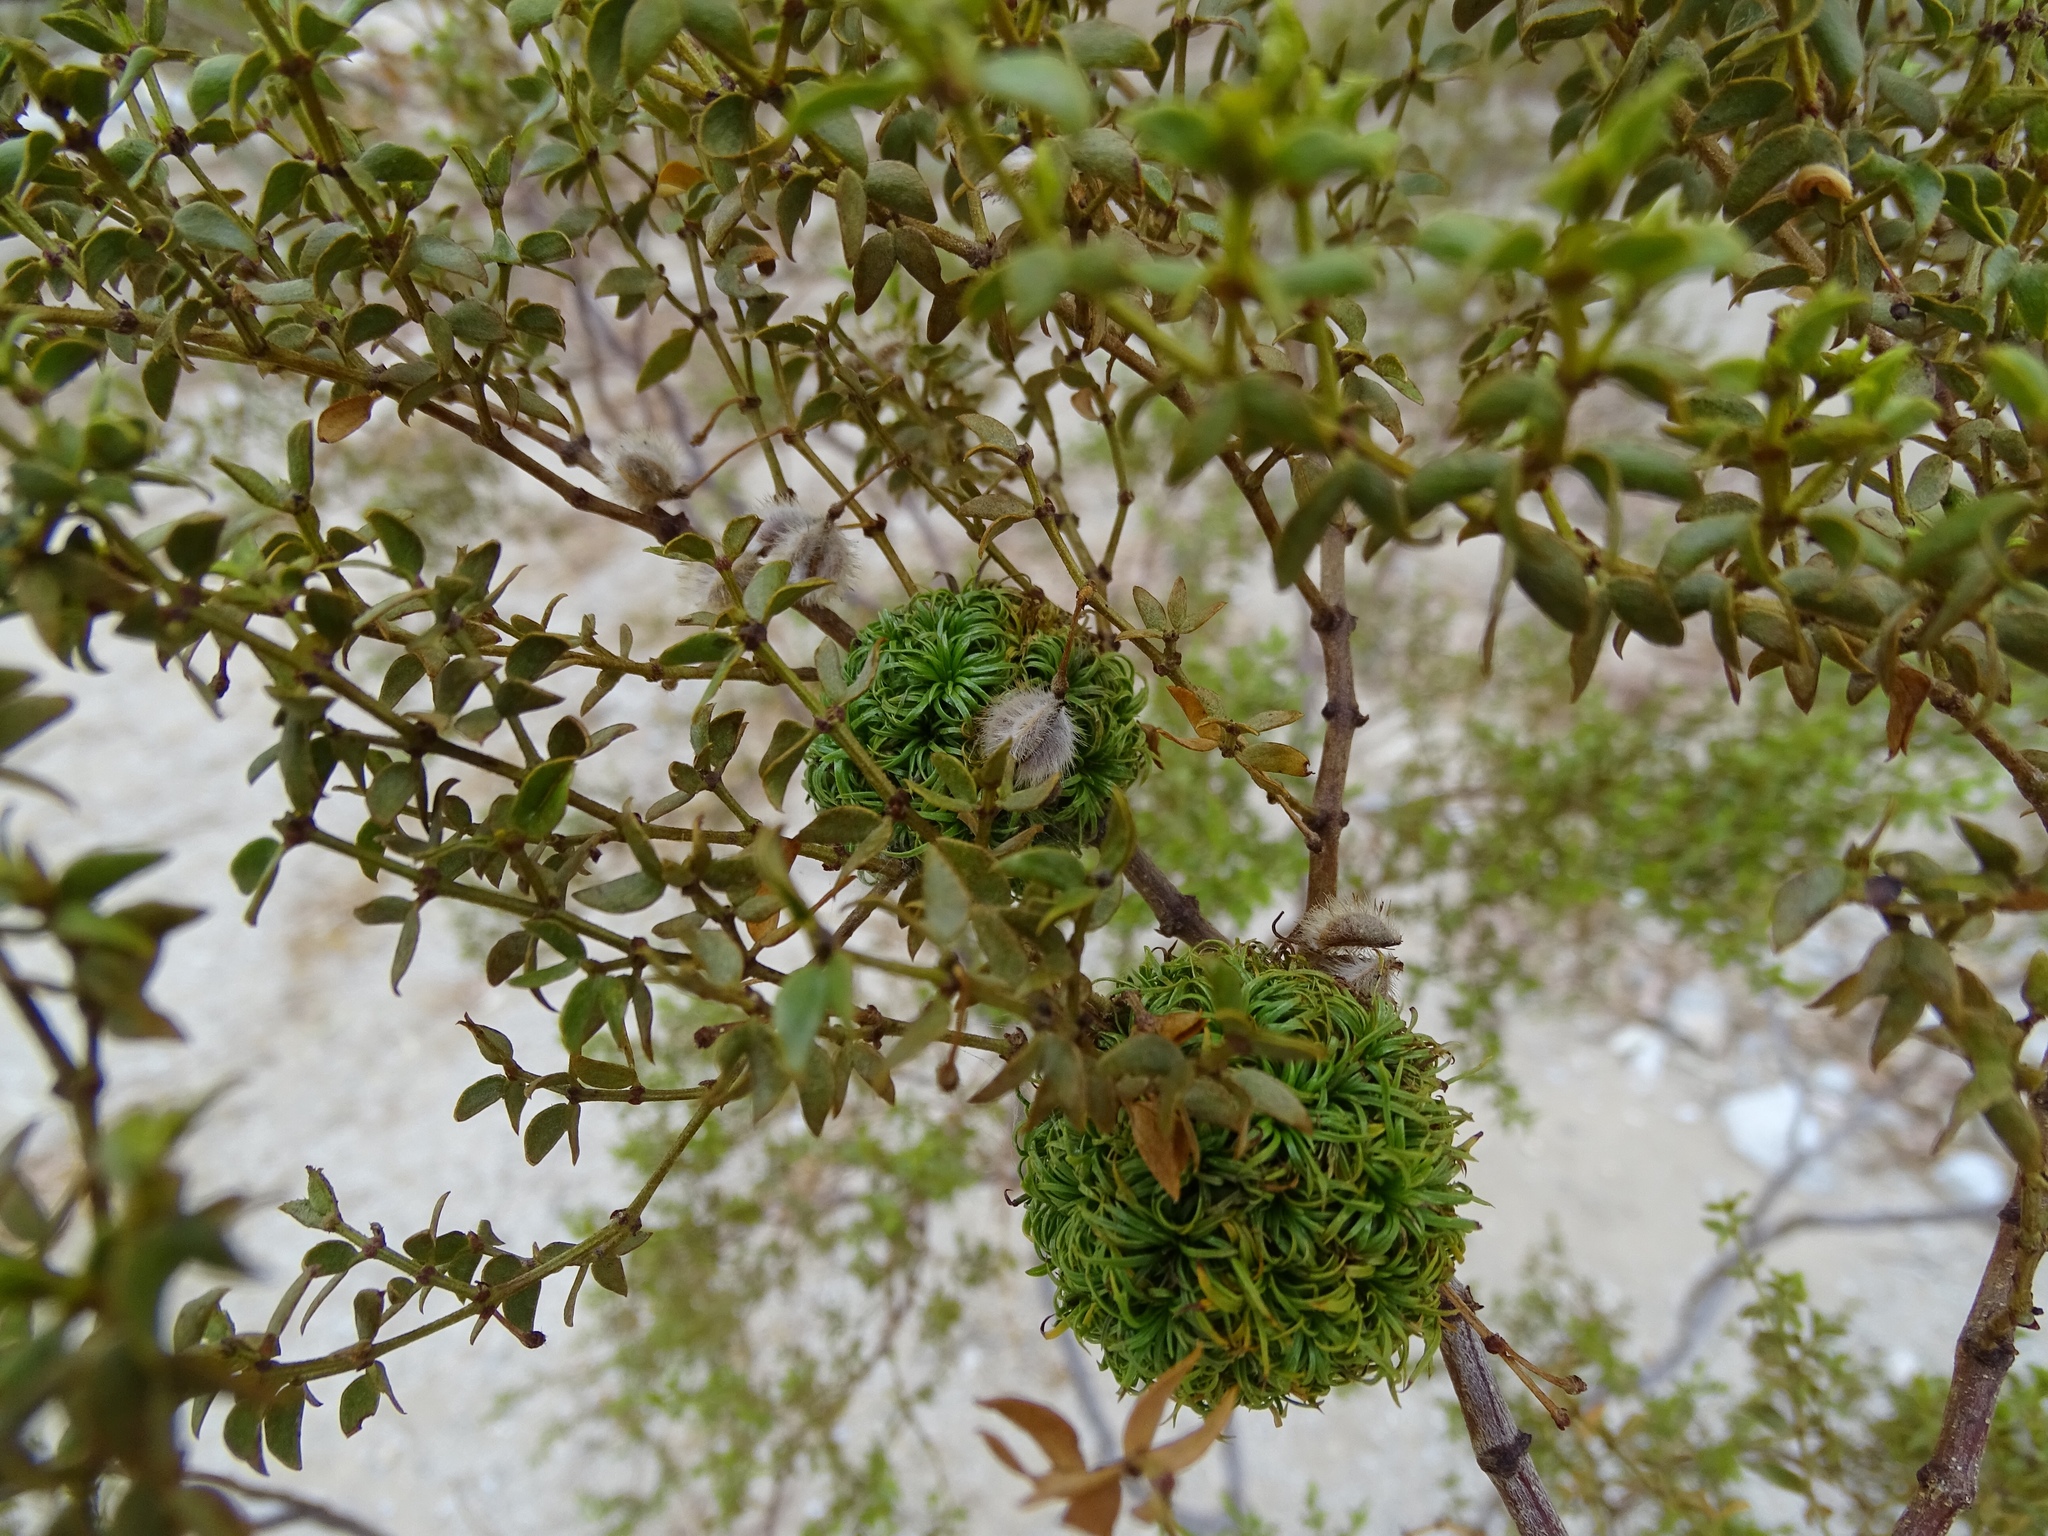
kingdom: Plantae
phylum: Tracheophyta
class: Magnoliopsida
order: Zygophyllales
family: Zygophyllaceae
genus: Larrea
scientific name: Larrea tridentata
